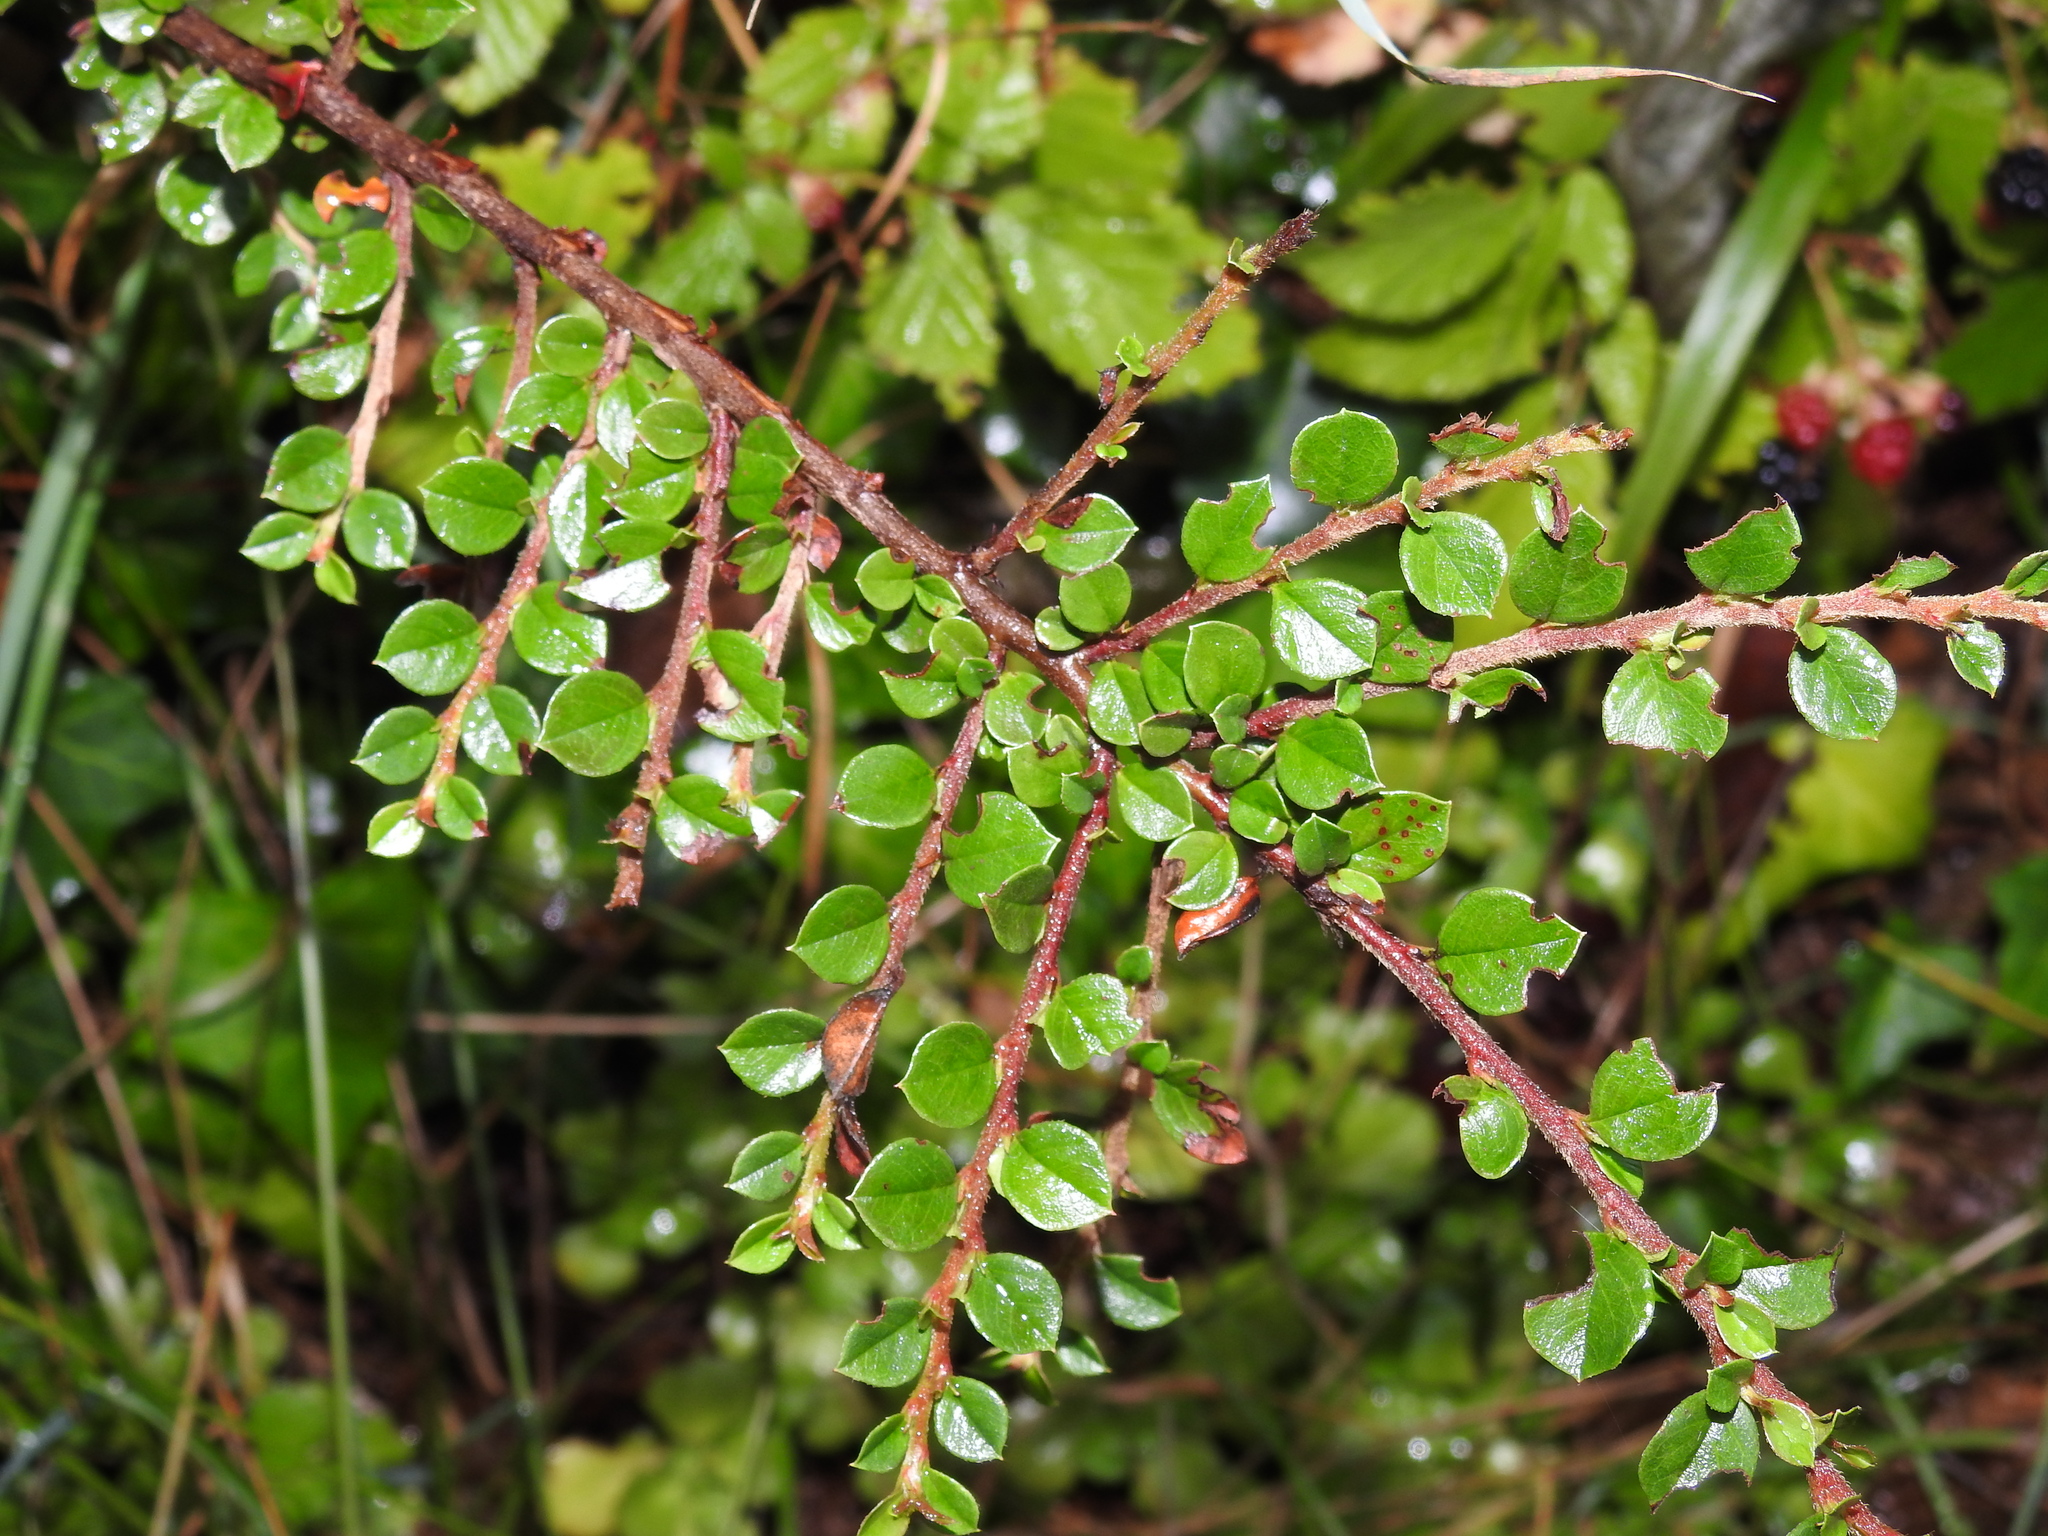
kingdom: Plantae
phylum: Tracheophyta
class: Magnoliopsida
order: Rosales
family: Rosaceae
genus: Cotoneaster
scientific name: Cotoneaster horizontalis
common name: Wall cotoneaster
